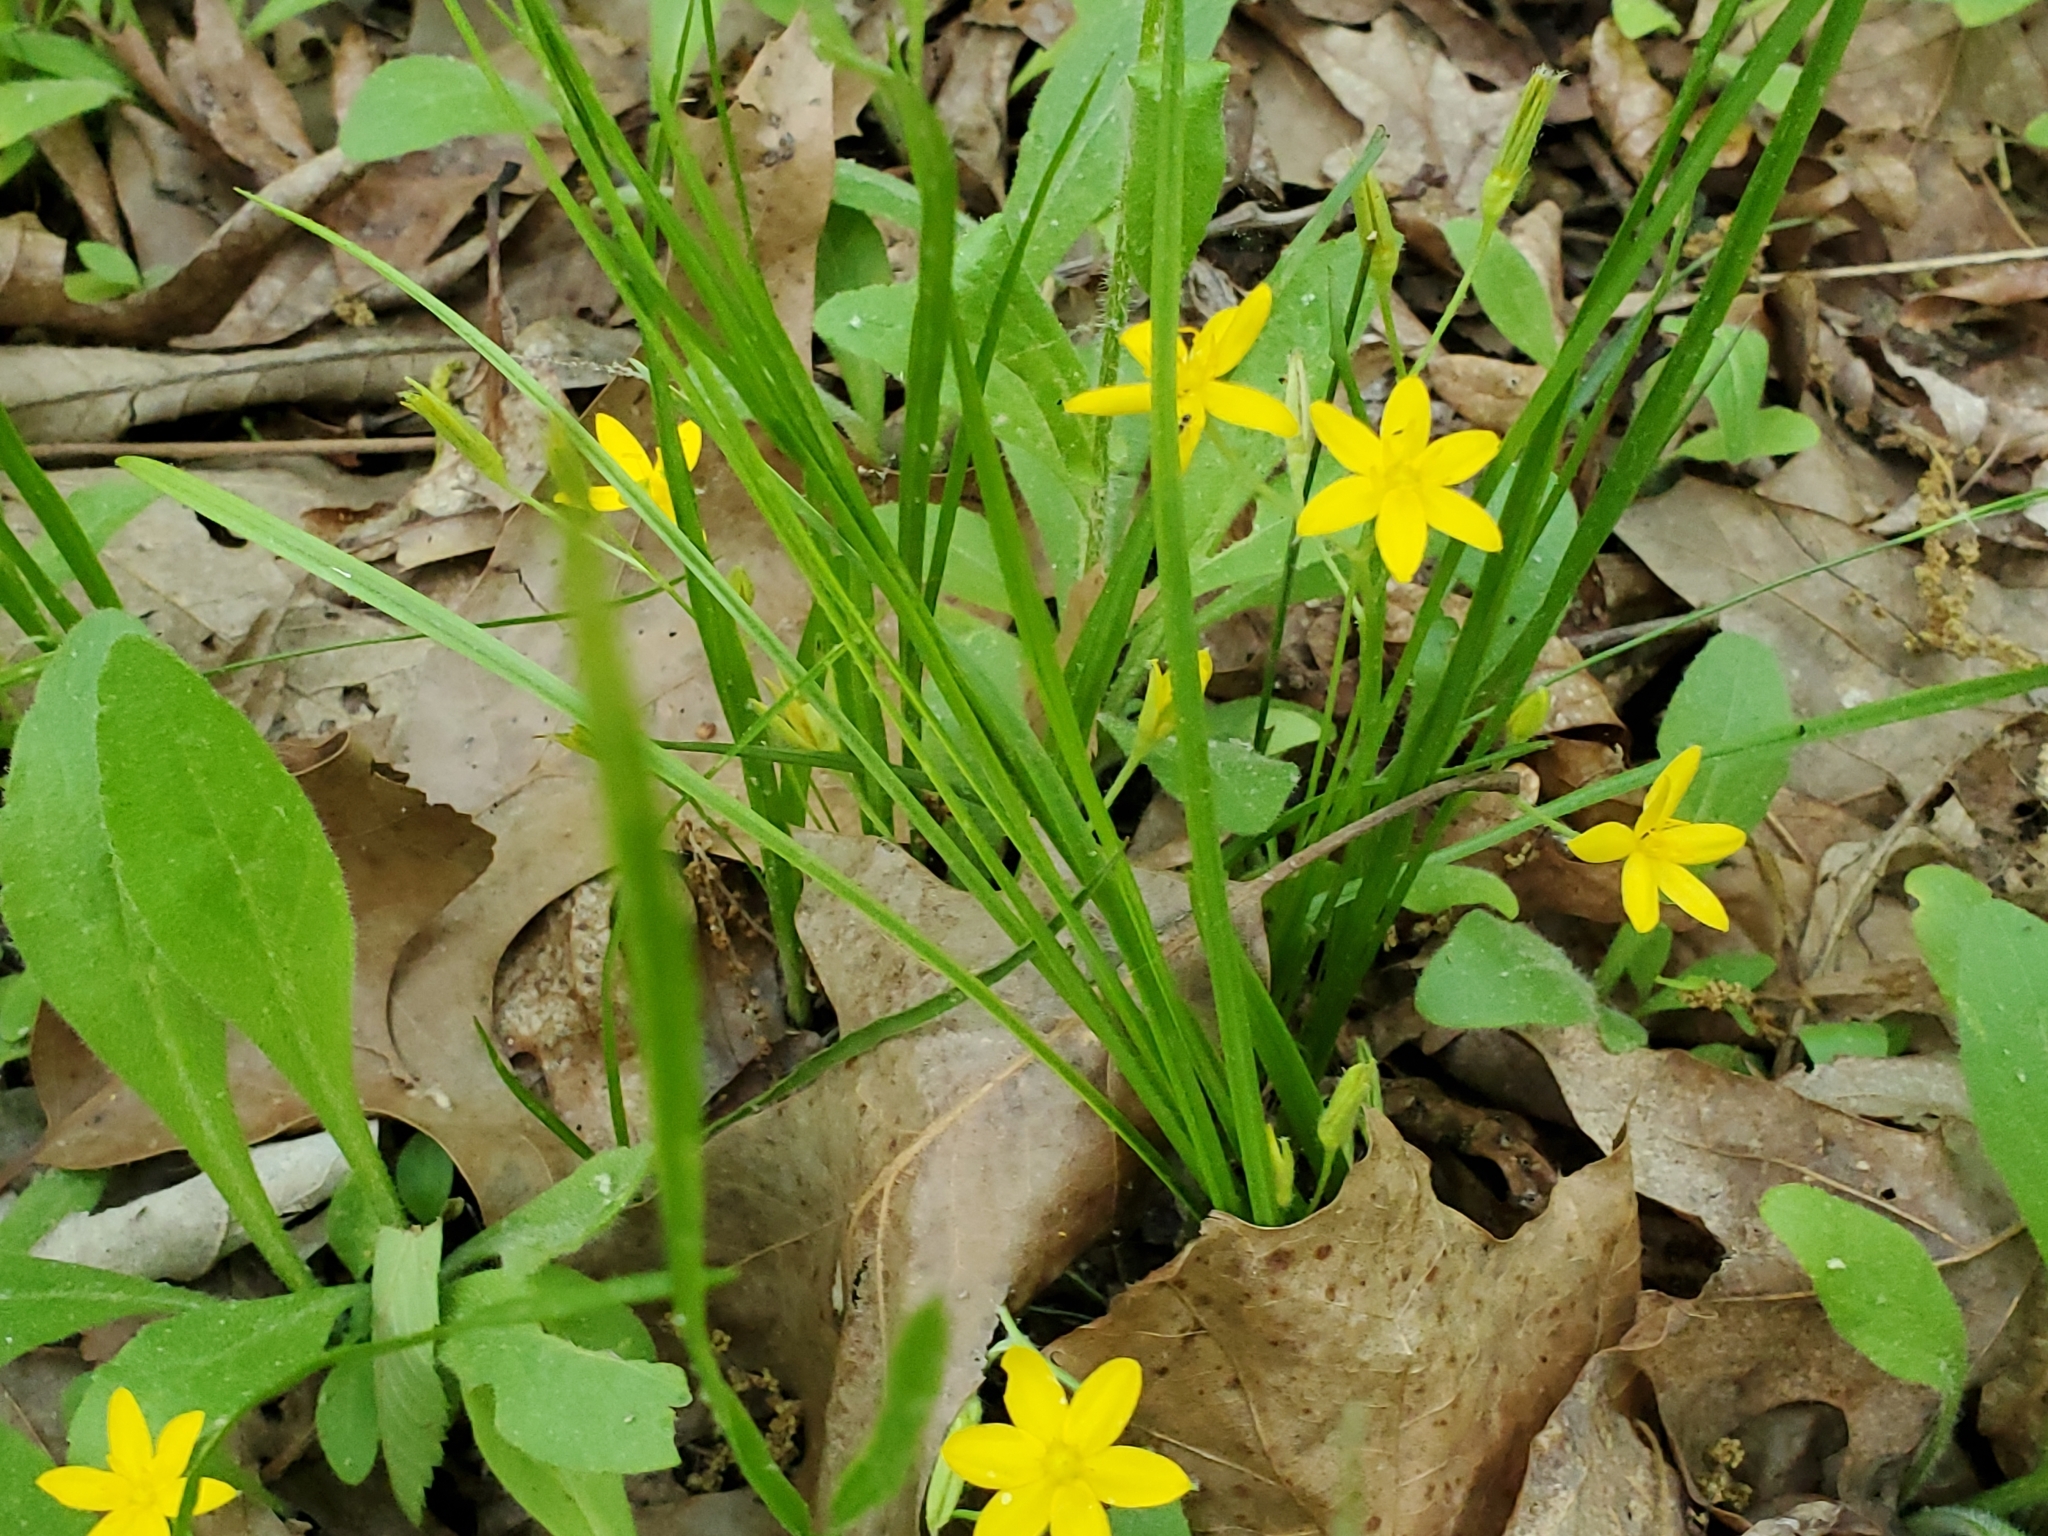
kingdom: Plantae
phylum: Tracheophyta
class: Liliopsida
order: Asparagales
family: Hypoxidaceae
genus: Hypoxis
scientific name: Hypoxis hirsuta
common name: Common goldstar
